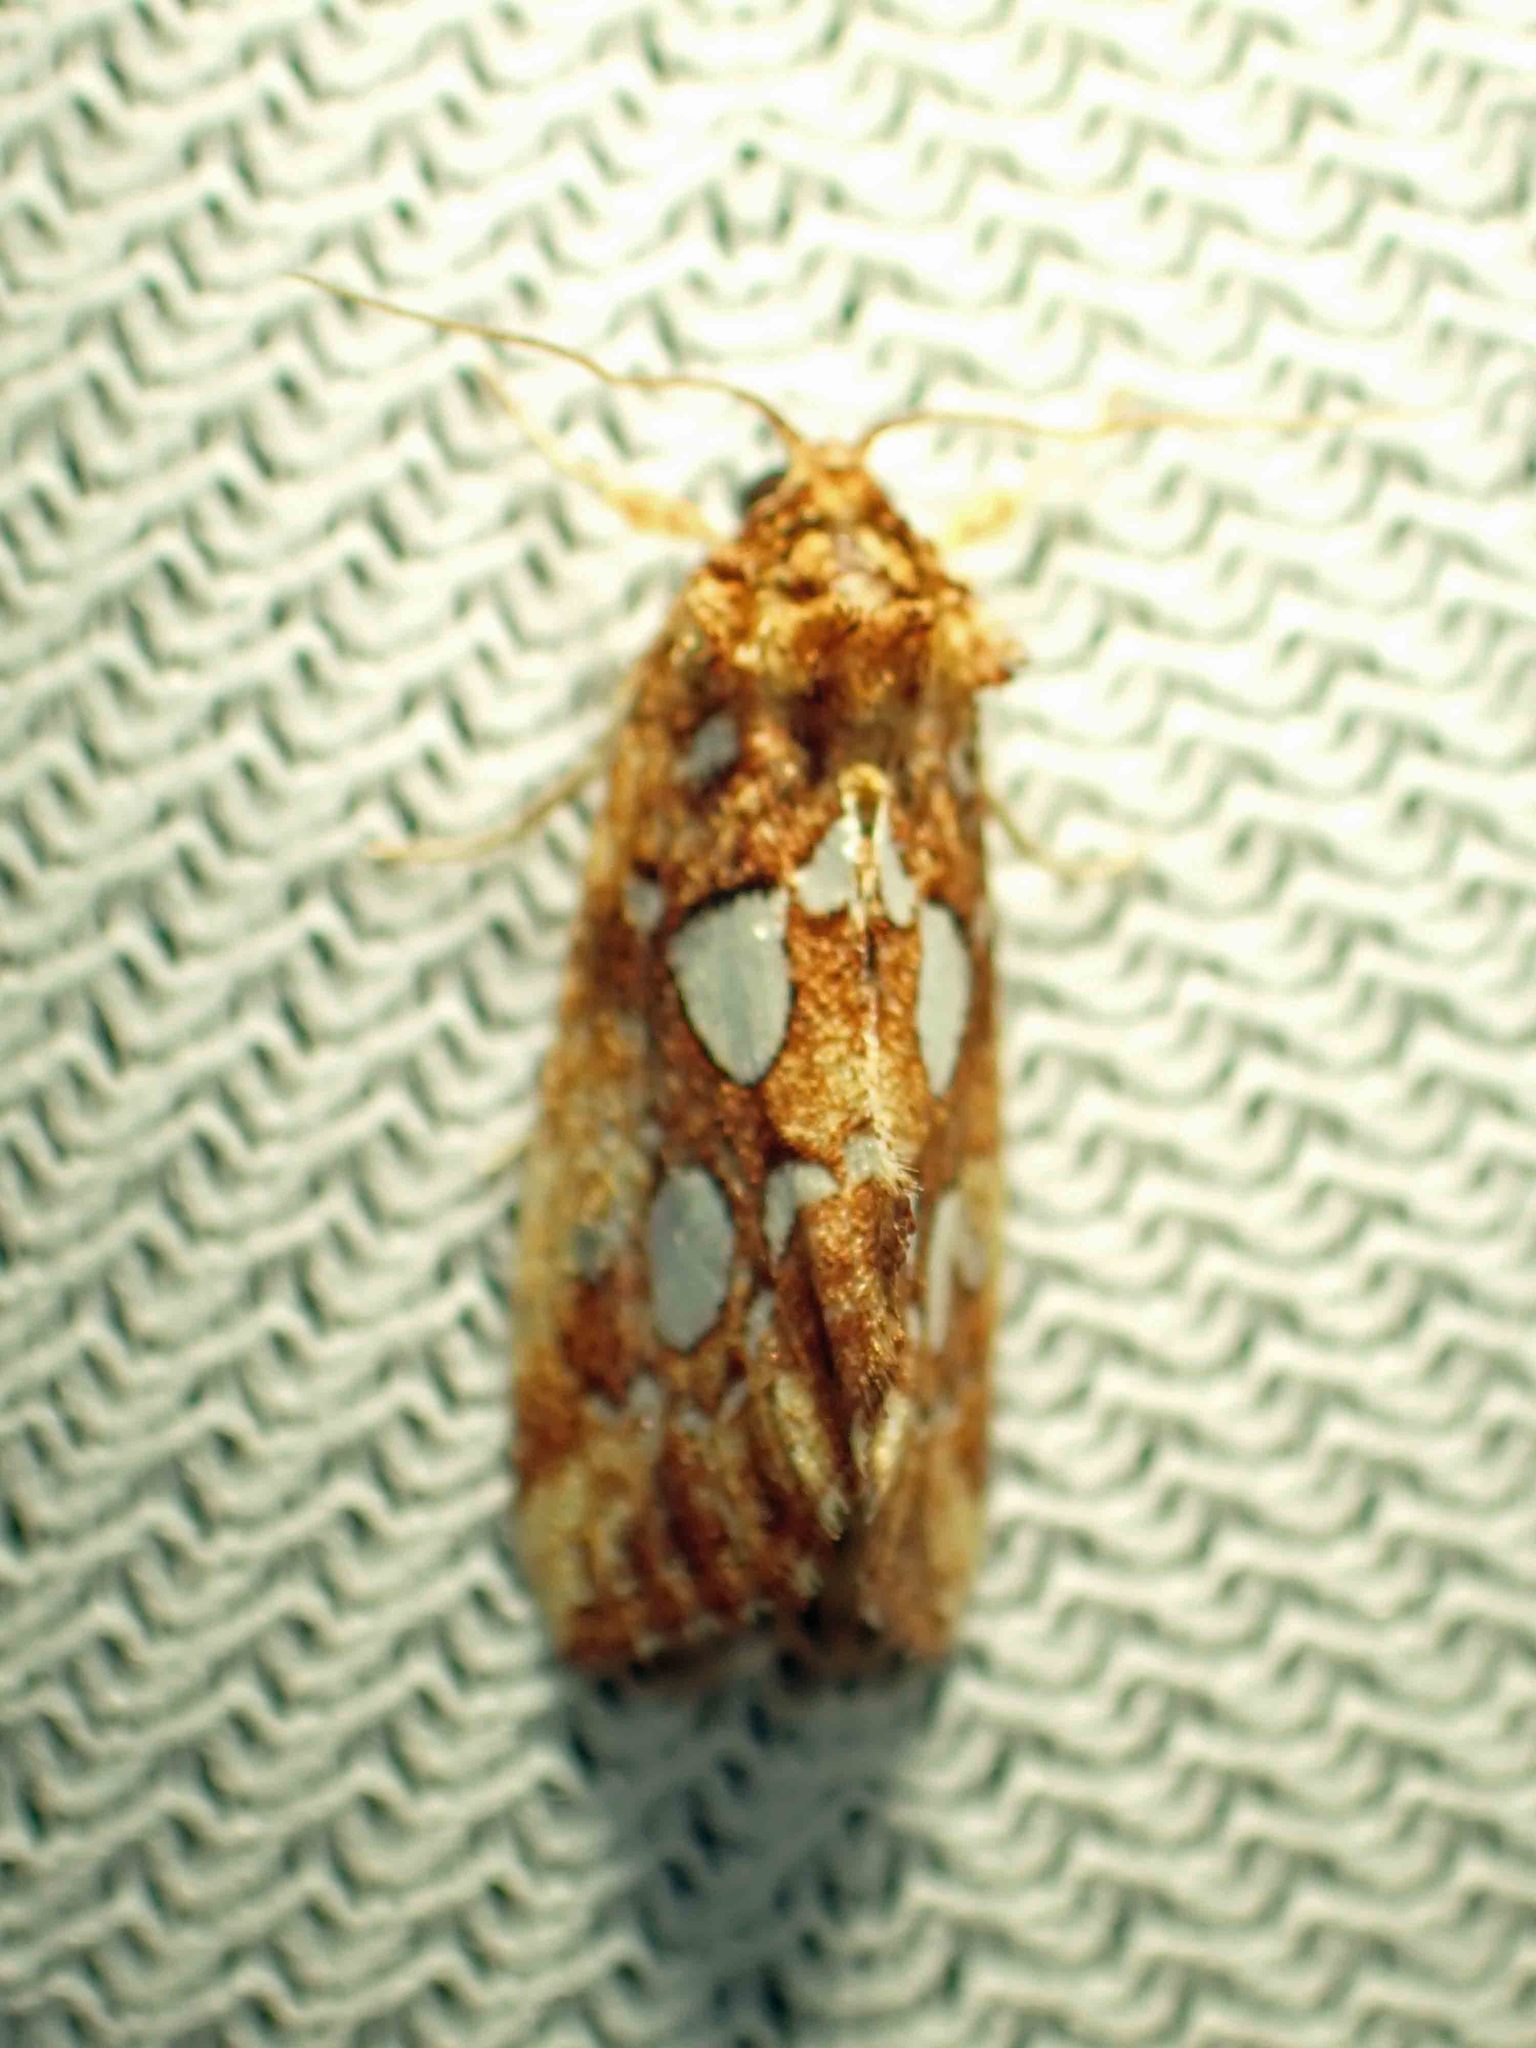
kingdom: Animalia
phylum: Arthropoda
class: Insecta
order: Lepidoptera
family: Noctuidae
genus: Callopistria
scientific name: Callopistria cordata
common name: Silver-spotted fern moth
